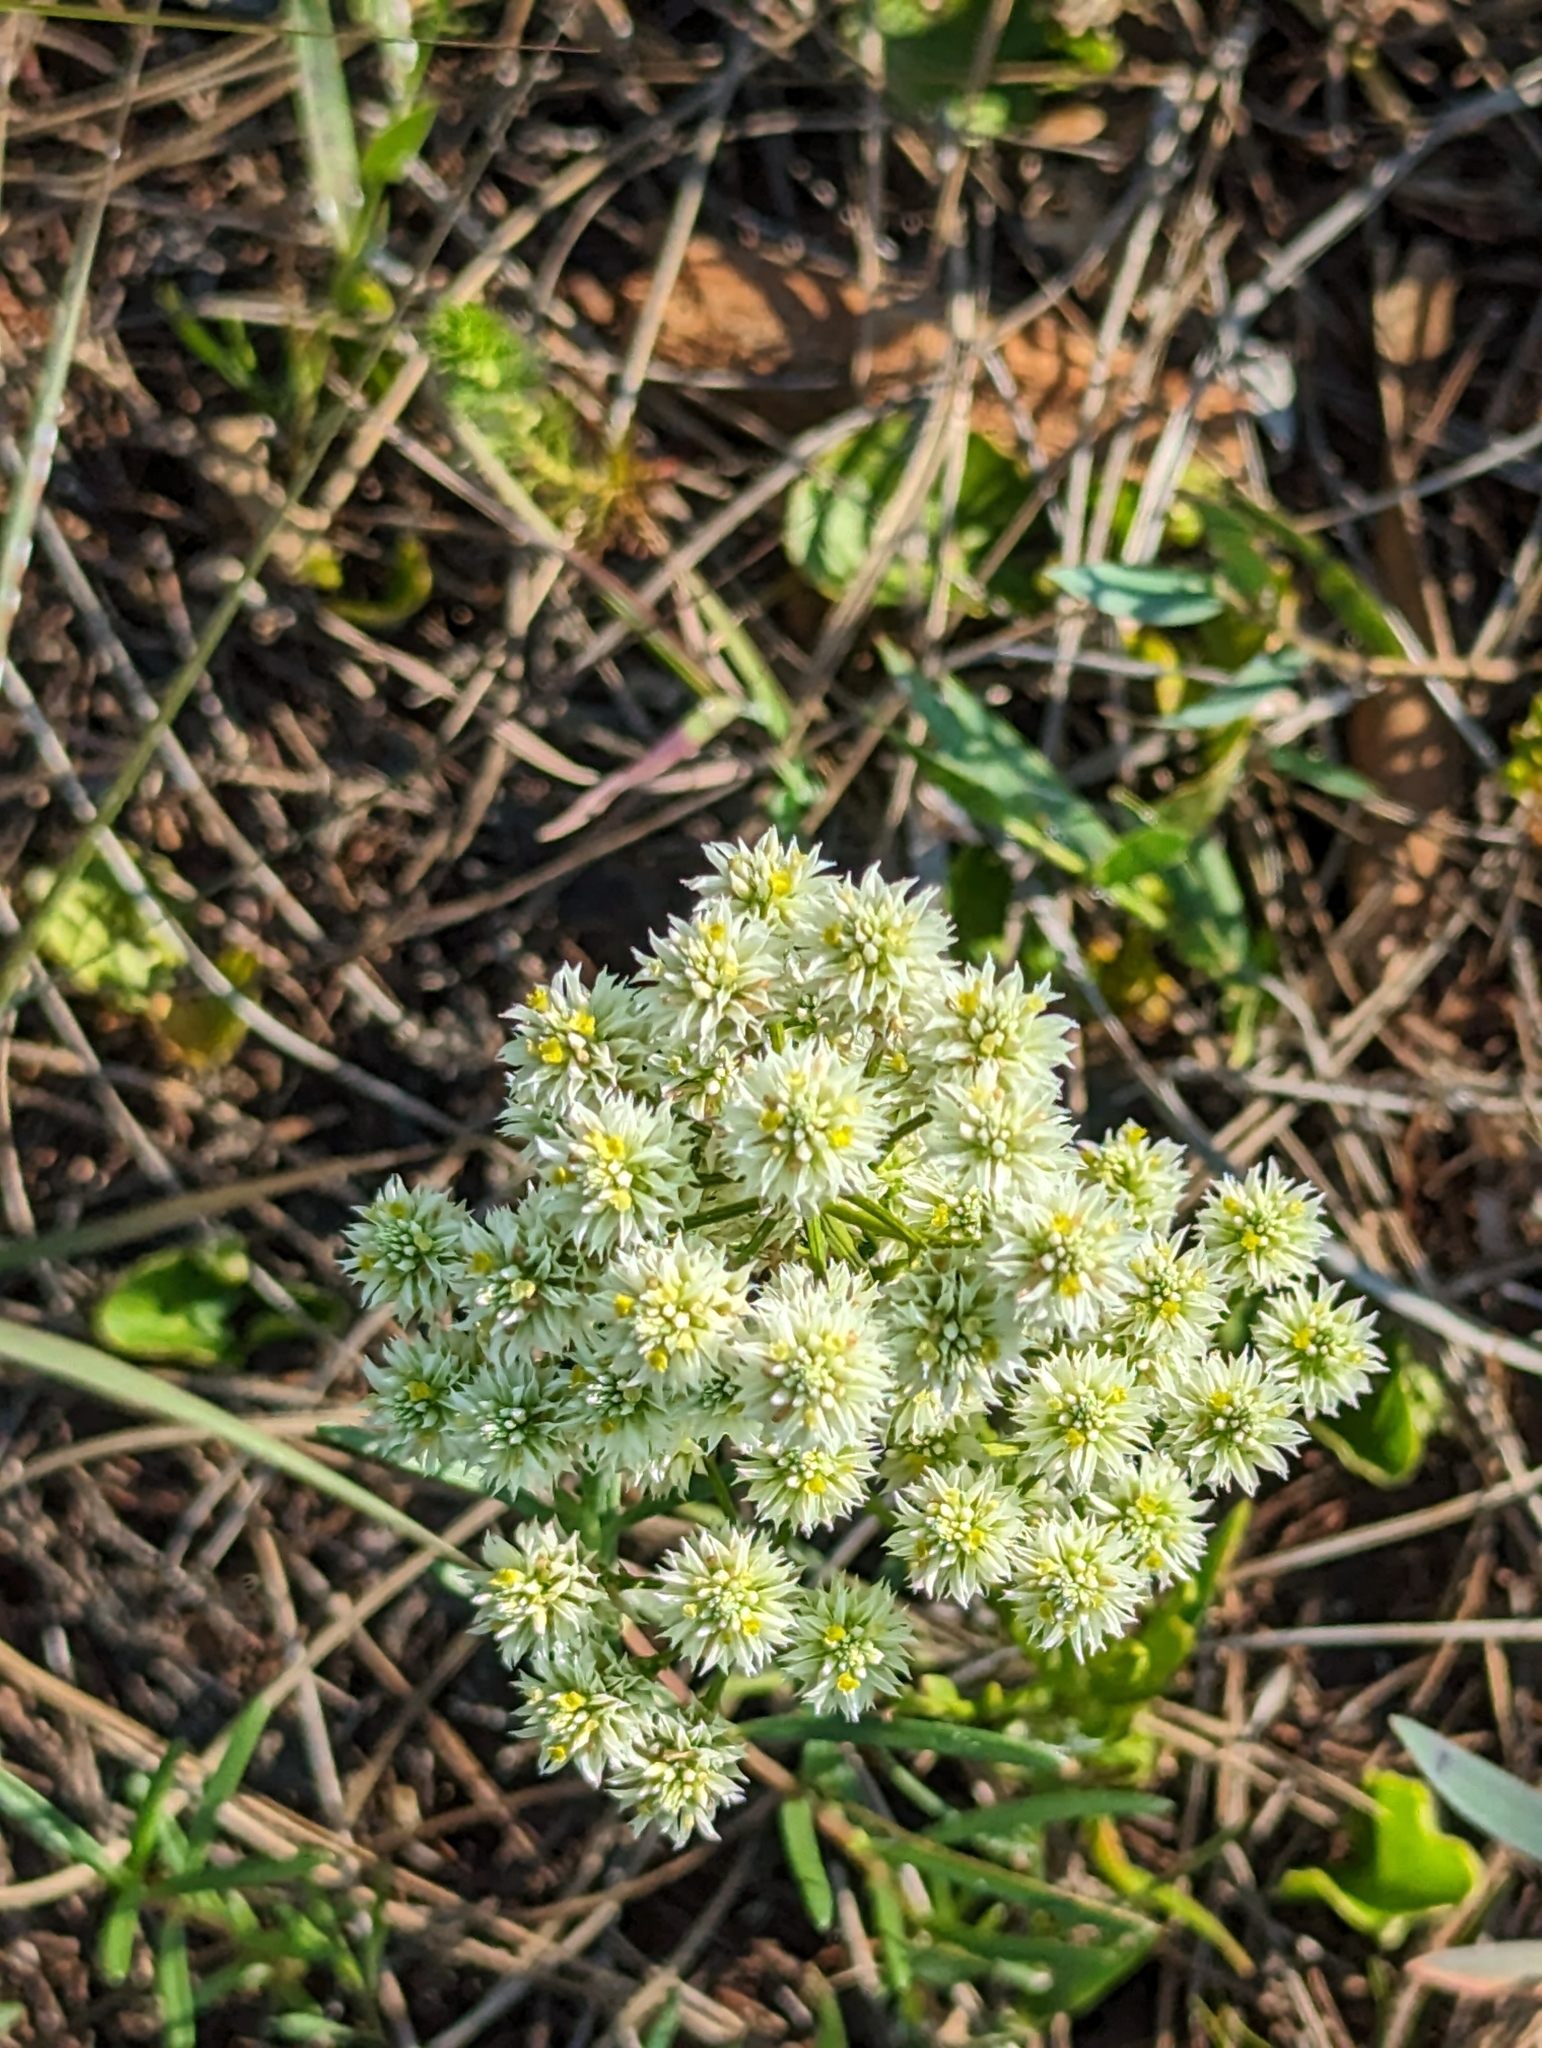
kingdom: Plantae
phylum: Tracheophyta
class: Magnoliopsida
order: Fabales
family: Polygalaceae
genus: Polygala
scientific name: Polygala baldwinii
